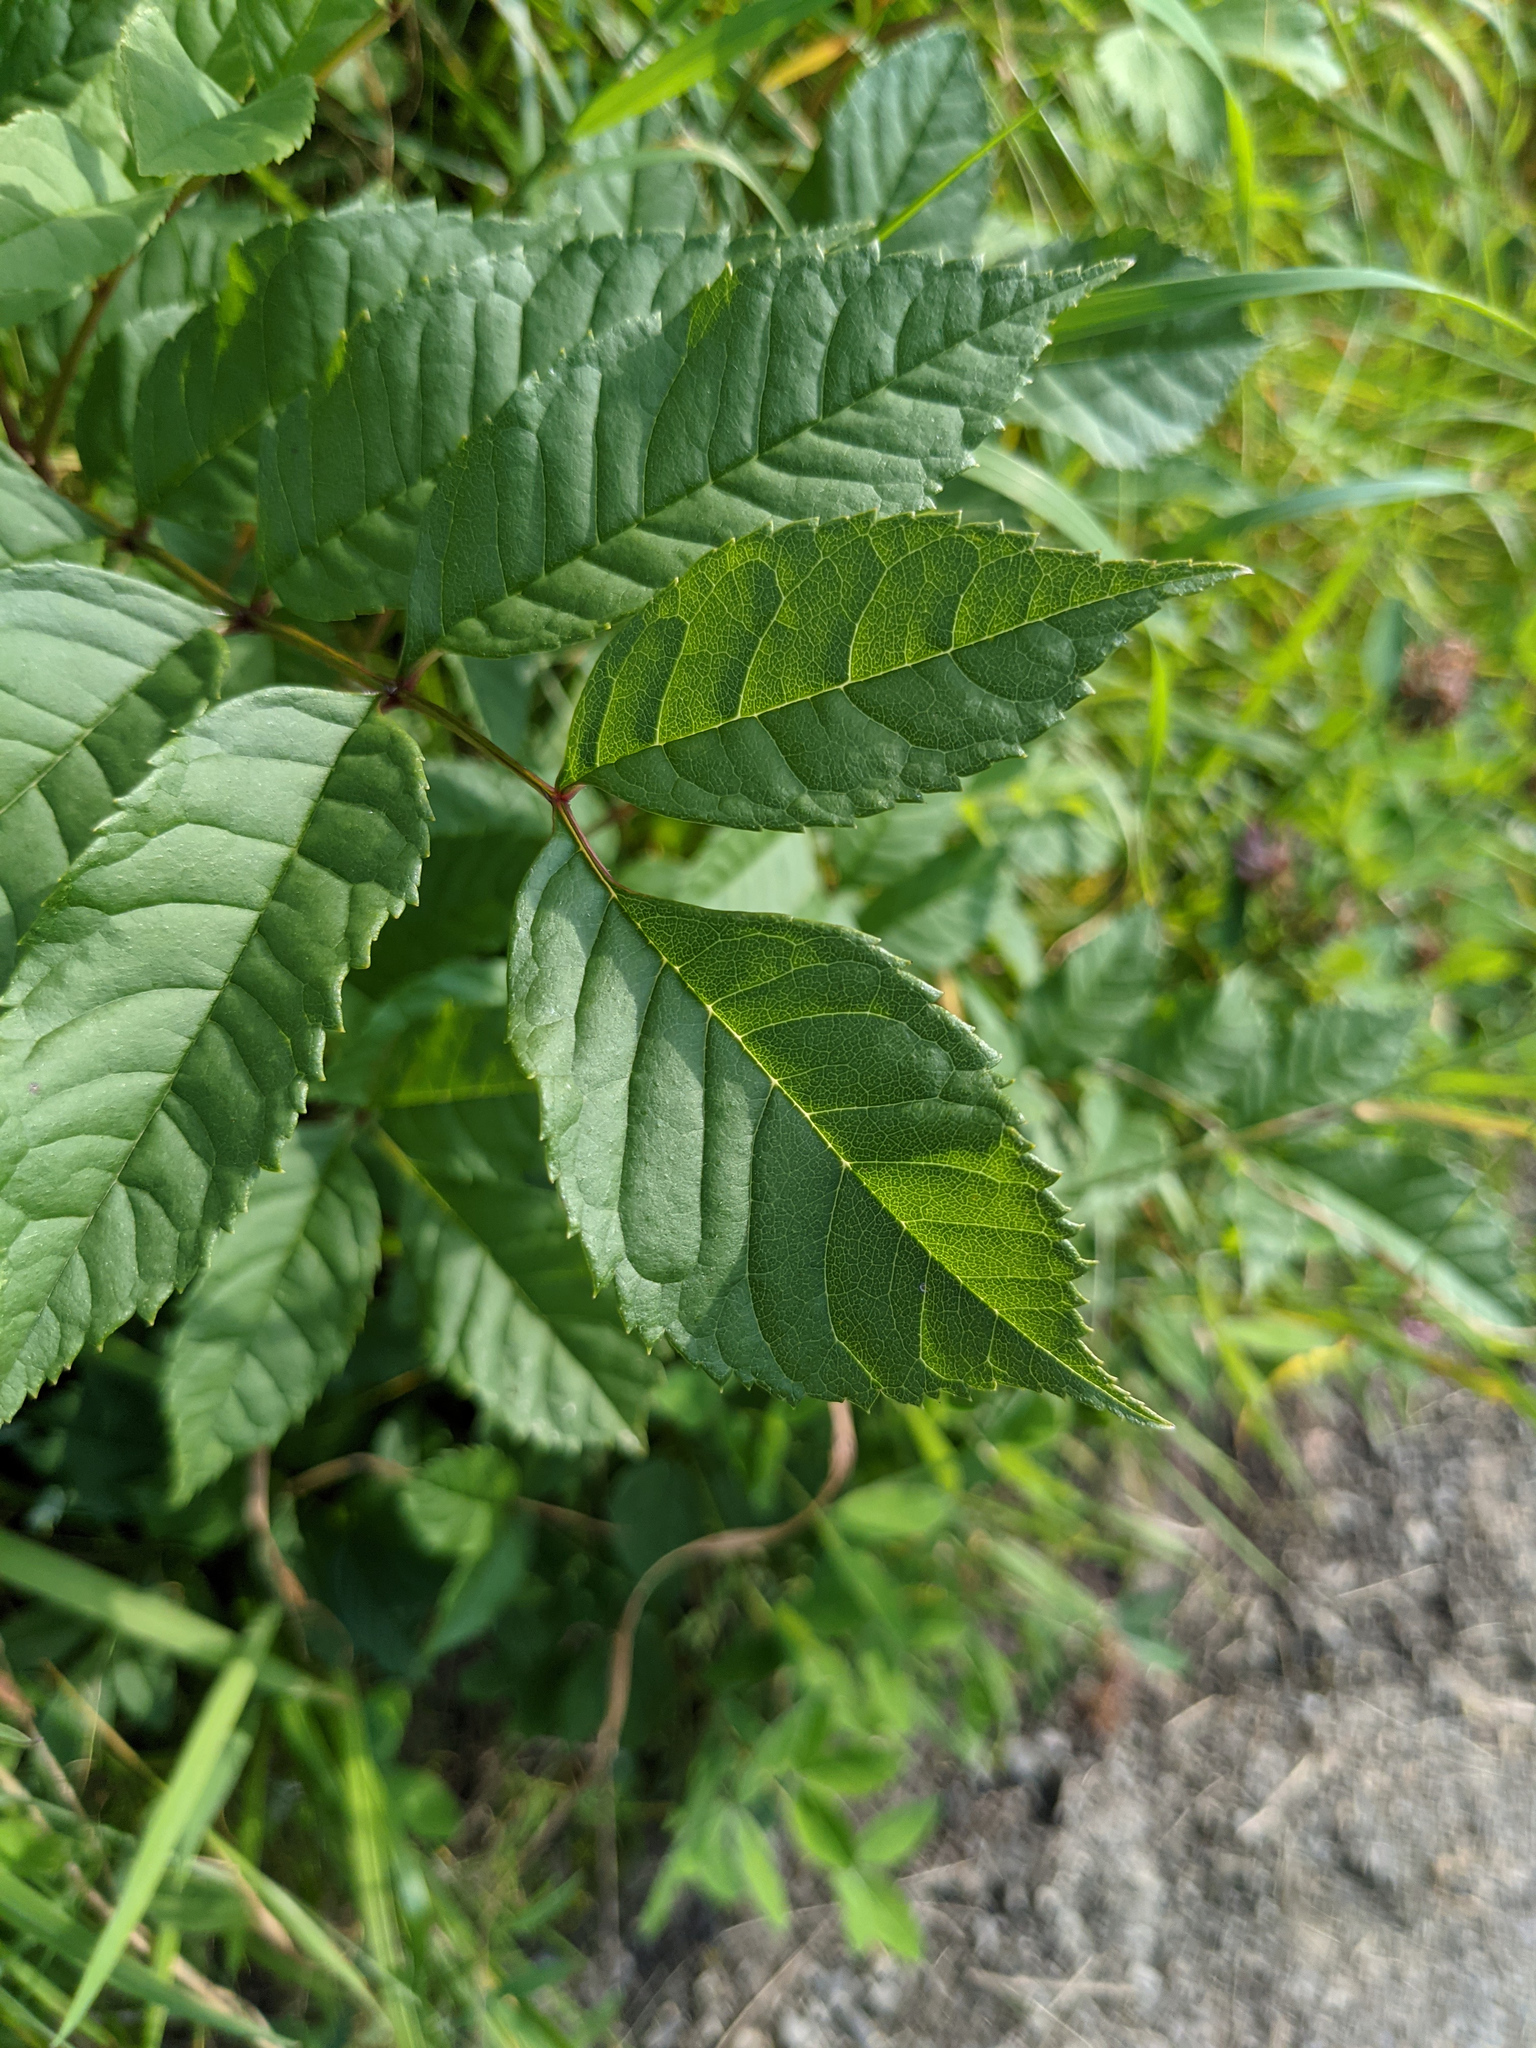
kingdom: Plantae
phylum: Tracheophyta
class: Magnoliopsida
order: Lamiales
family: Oleaceae
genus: Fraxinus
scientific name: Fraxinus excelsior
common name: European ash
